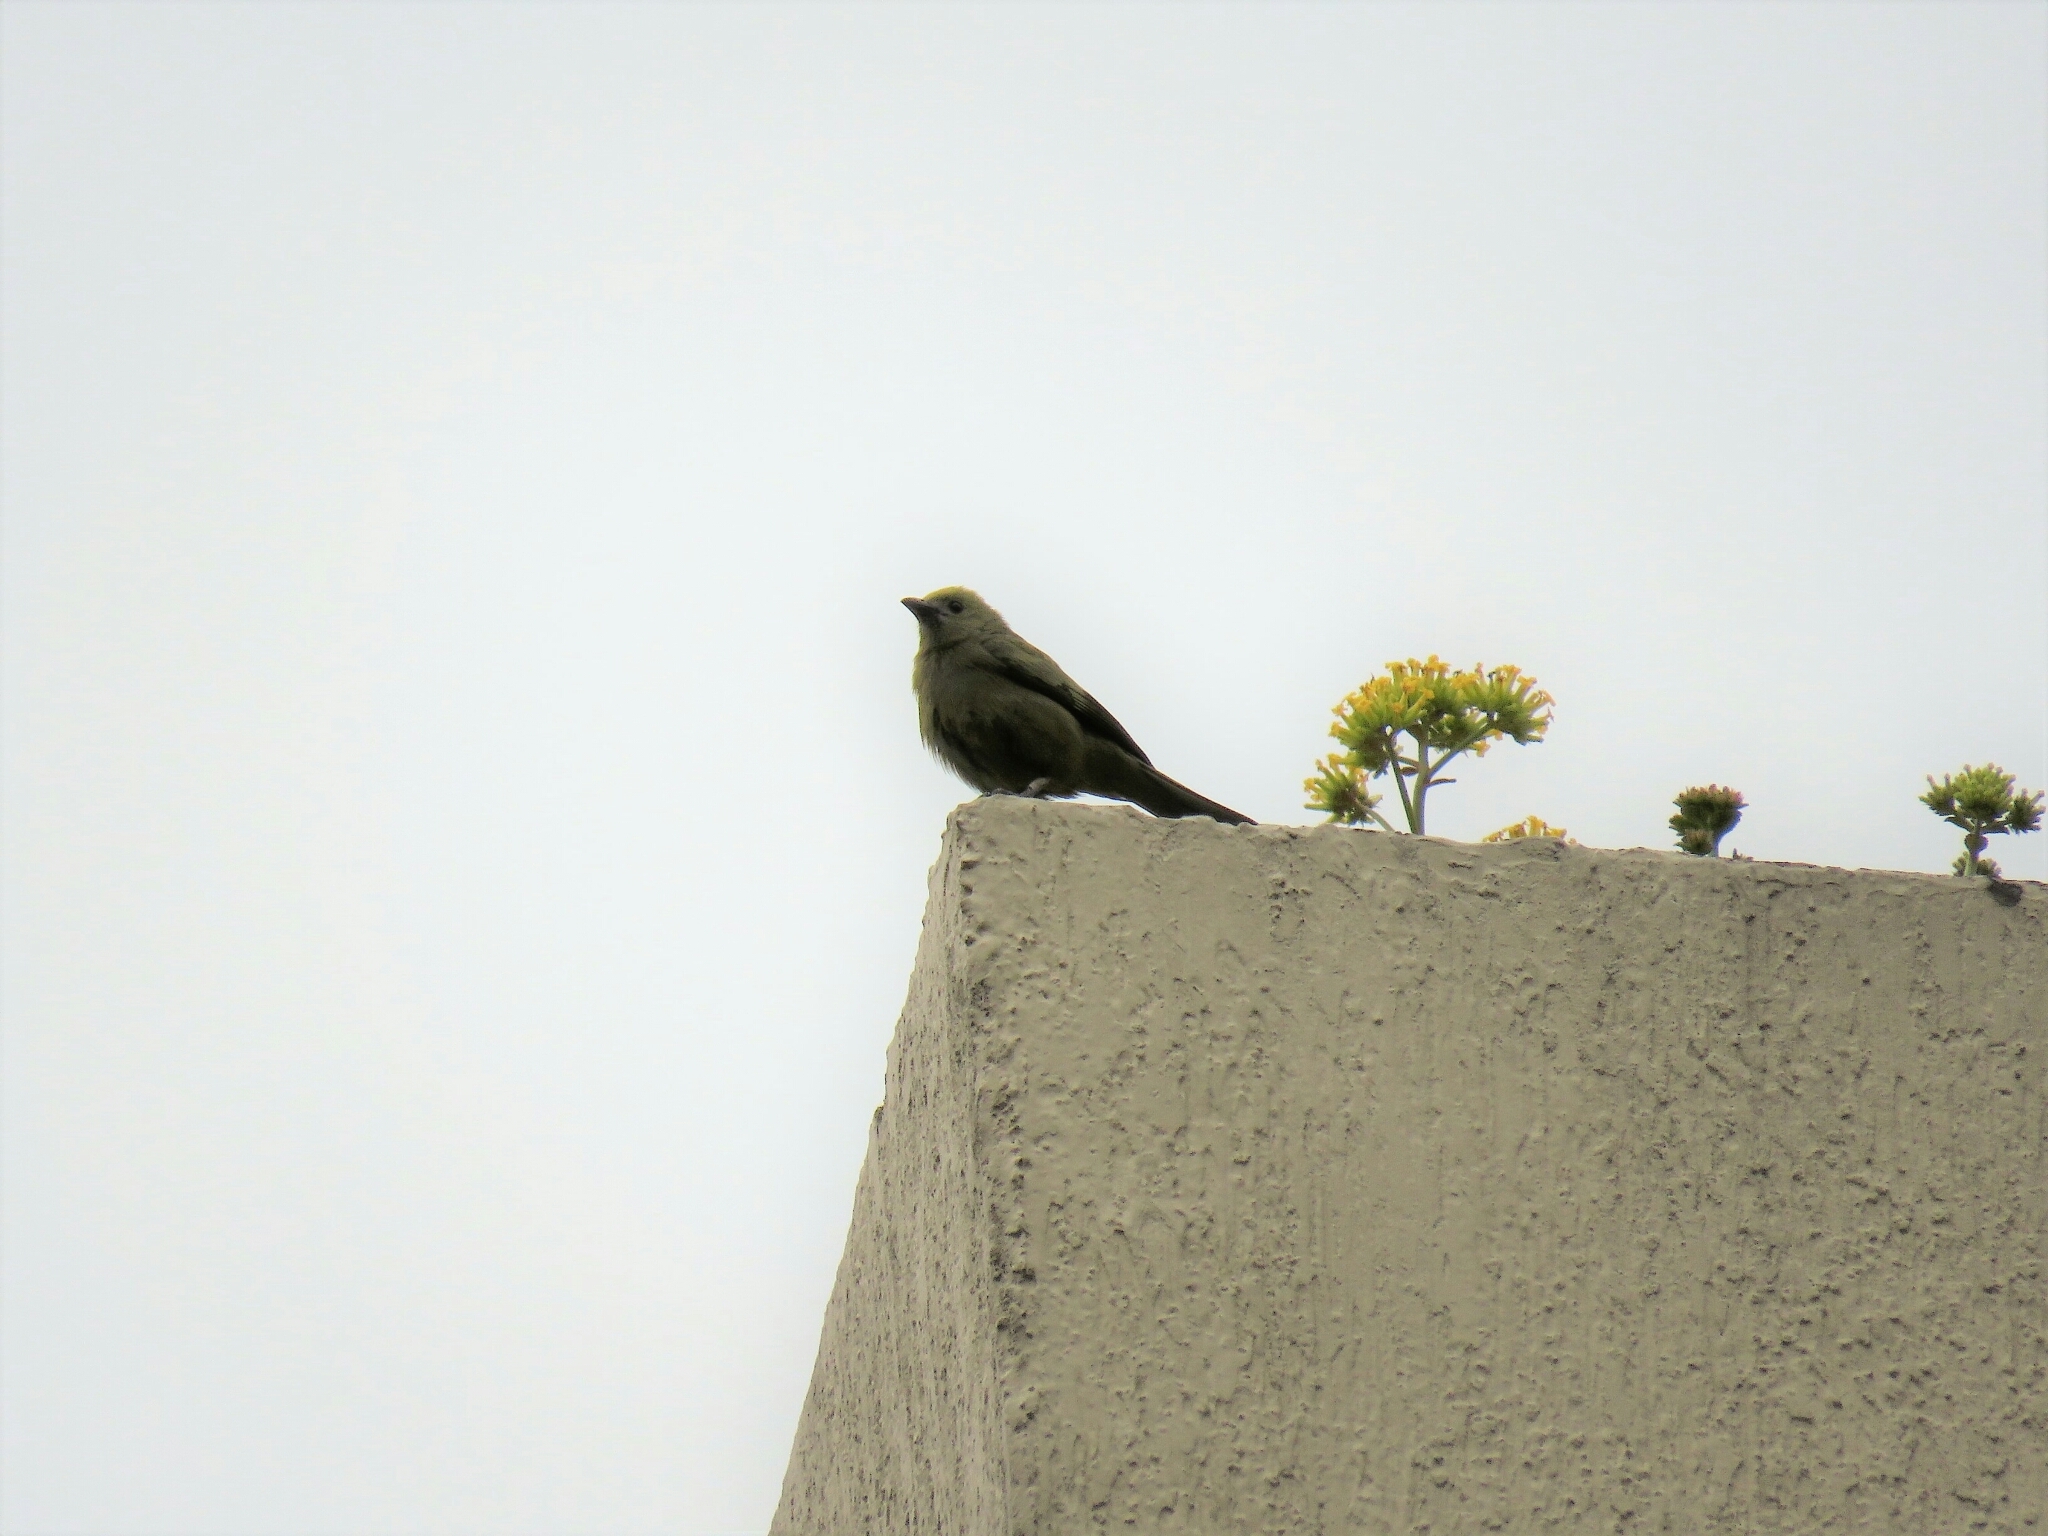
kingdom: Animalia
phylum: Chordata
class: Aves
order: Passeriformes
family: Thraupidae
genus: Thraupis
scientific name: Thraupis palmarum
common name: Palm tanager
